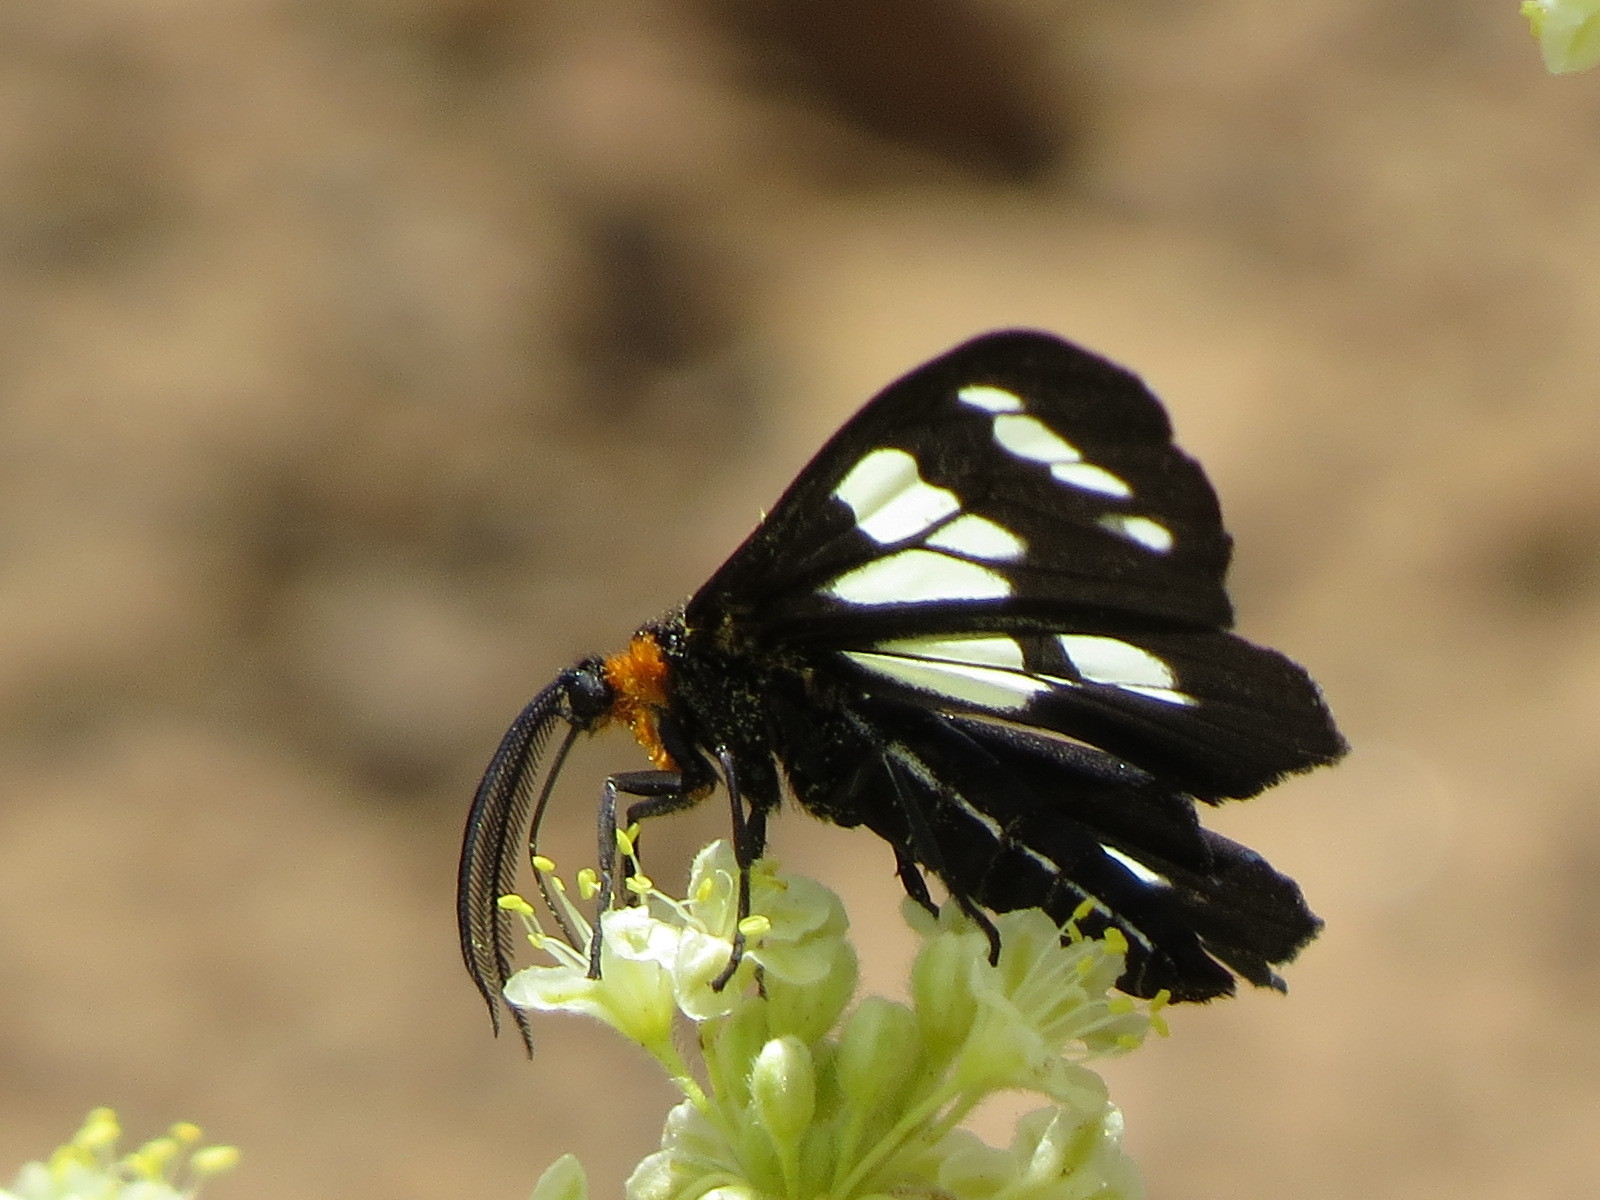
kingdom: Animalia
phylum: Arthropoda
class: Insecta
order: Lepidoptera
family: Erebidae
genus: Gnophaela
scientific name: Gnophaela latipennis
